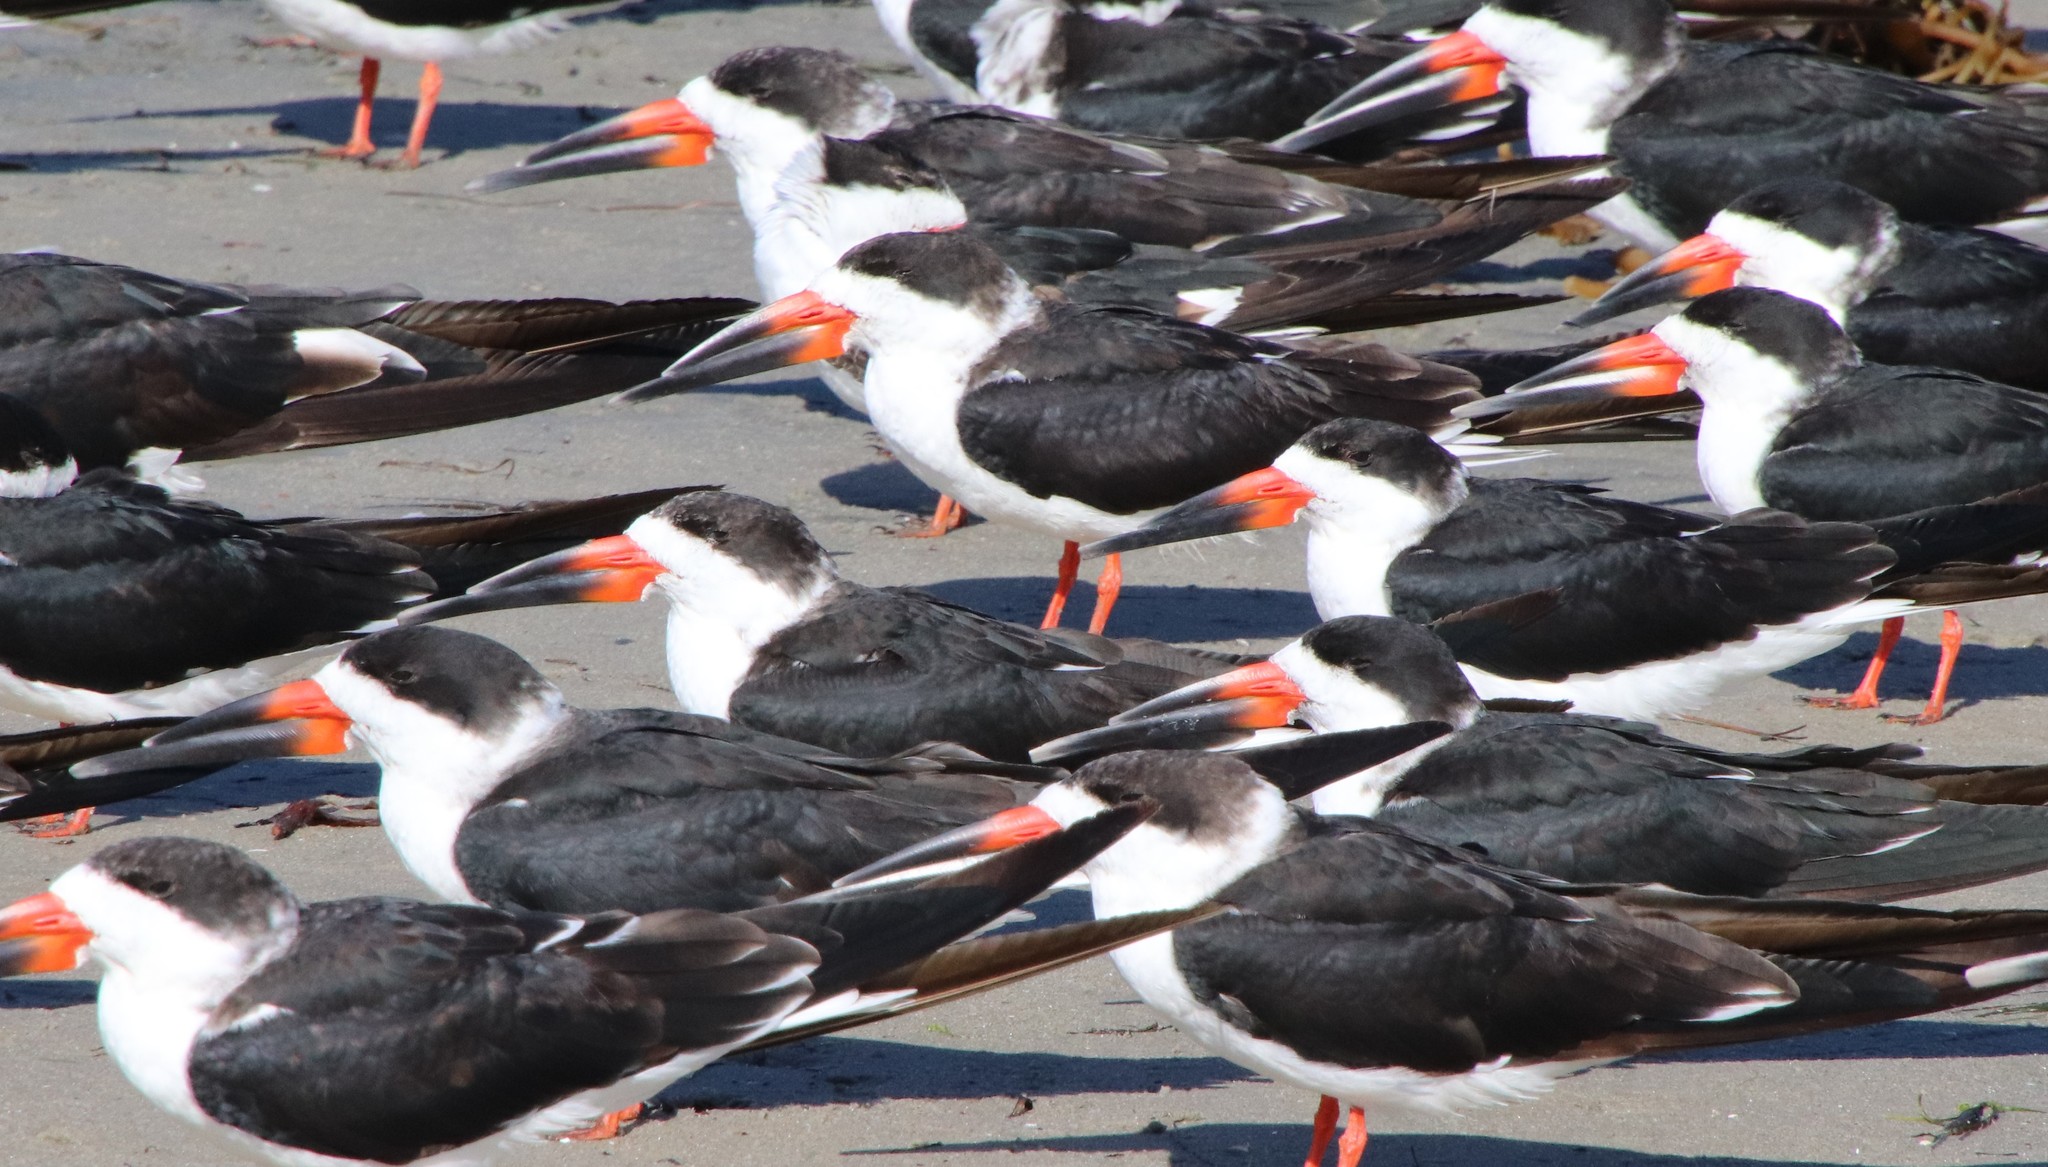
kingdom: Animalia
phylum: Chordata
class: Aves
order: Charadriiformes
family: Laridae
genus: Rynchops
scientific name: Rynchops niger
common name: Black skimmer
